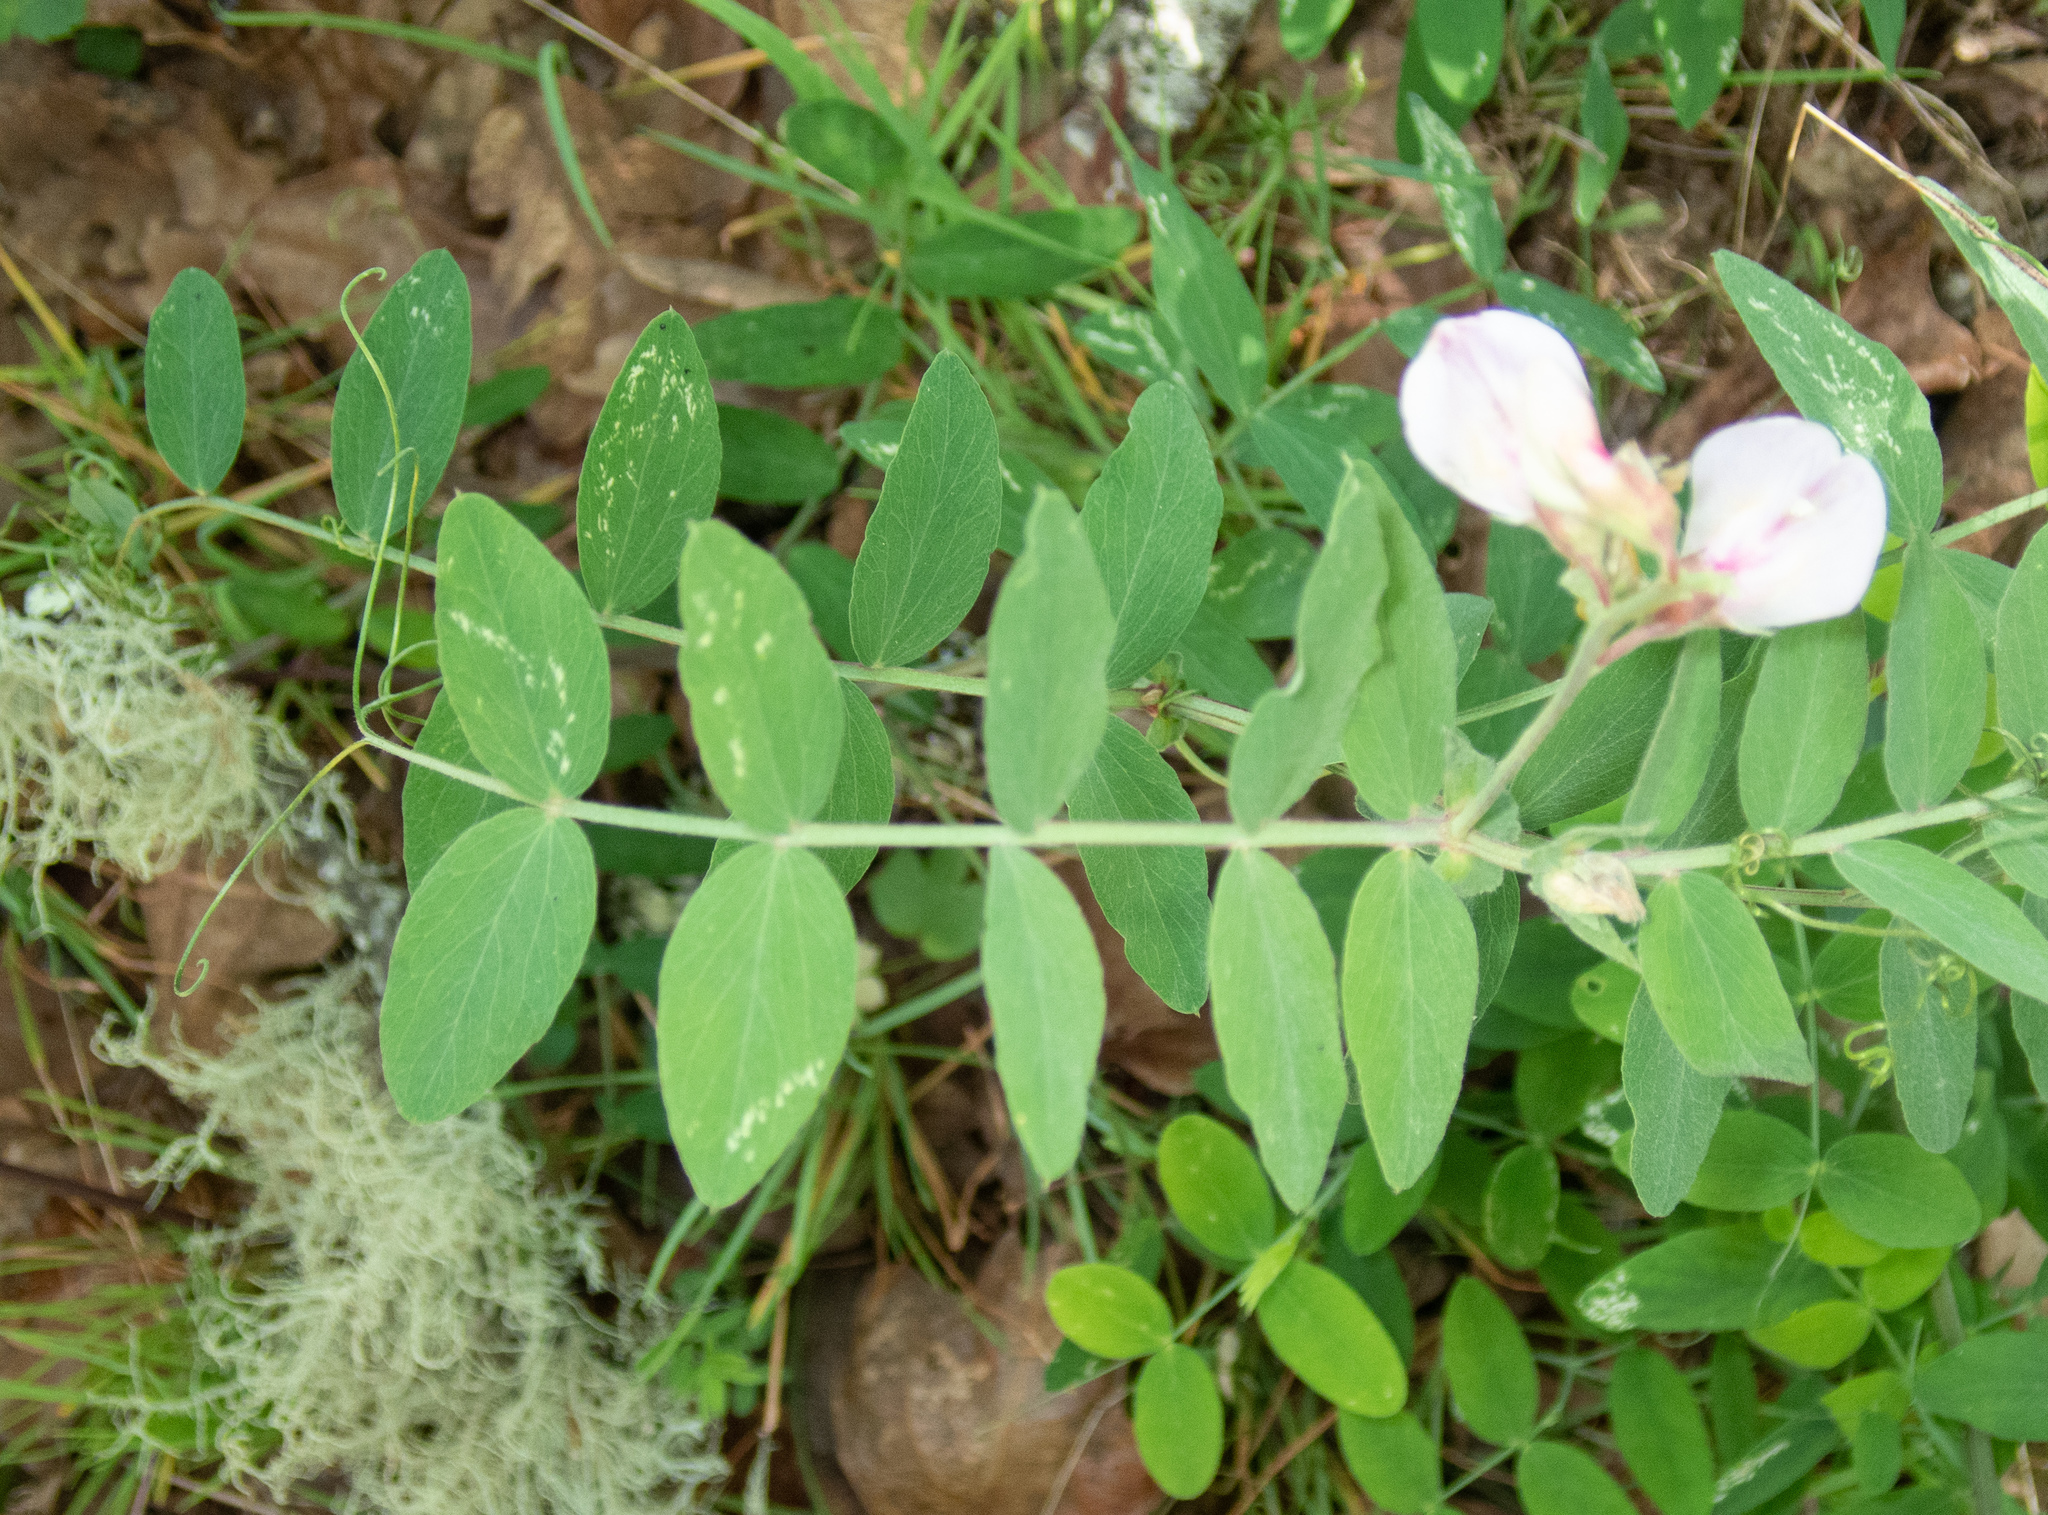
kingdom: Plantae
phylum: Tracheophyta
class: Magnoliopsida
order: Fabales
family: Fabaceae
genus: Lathyrus
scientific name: Lathyrus vestitus
